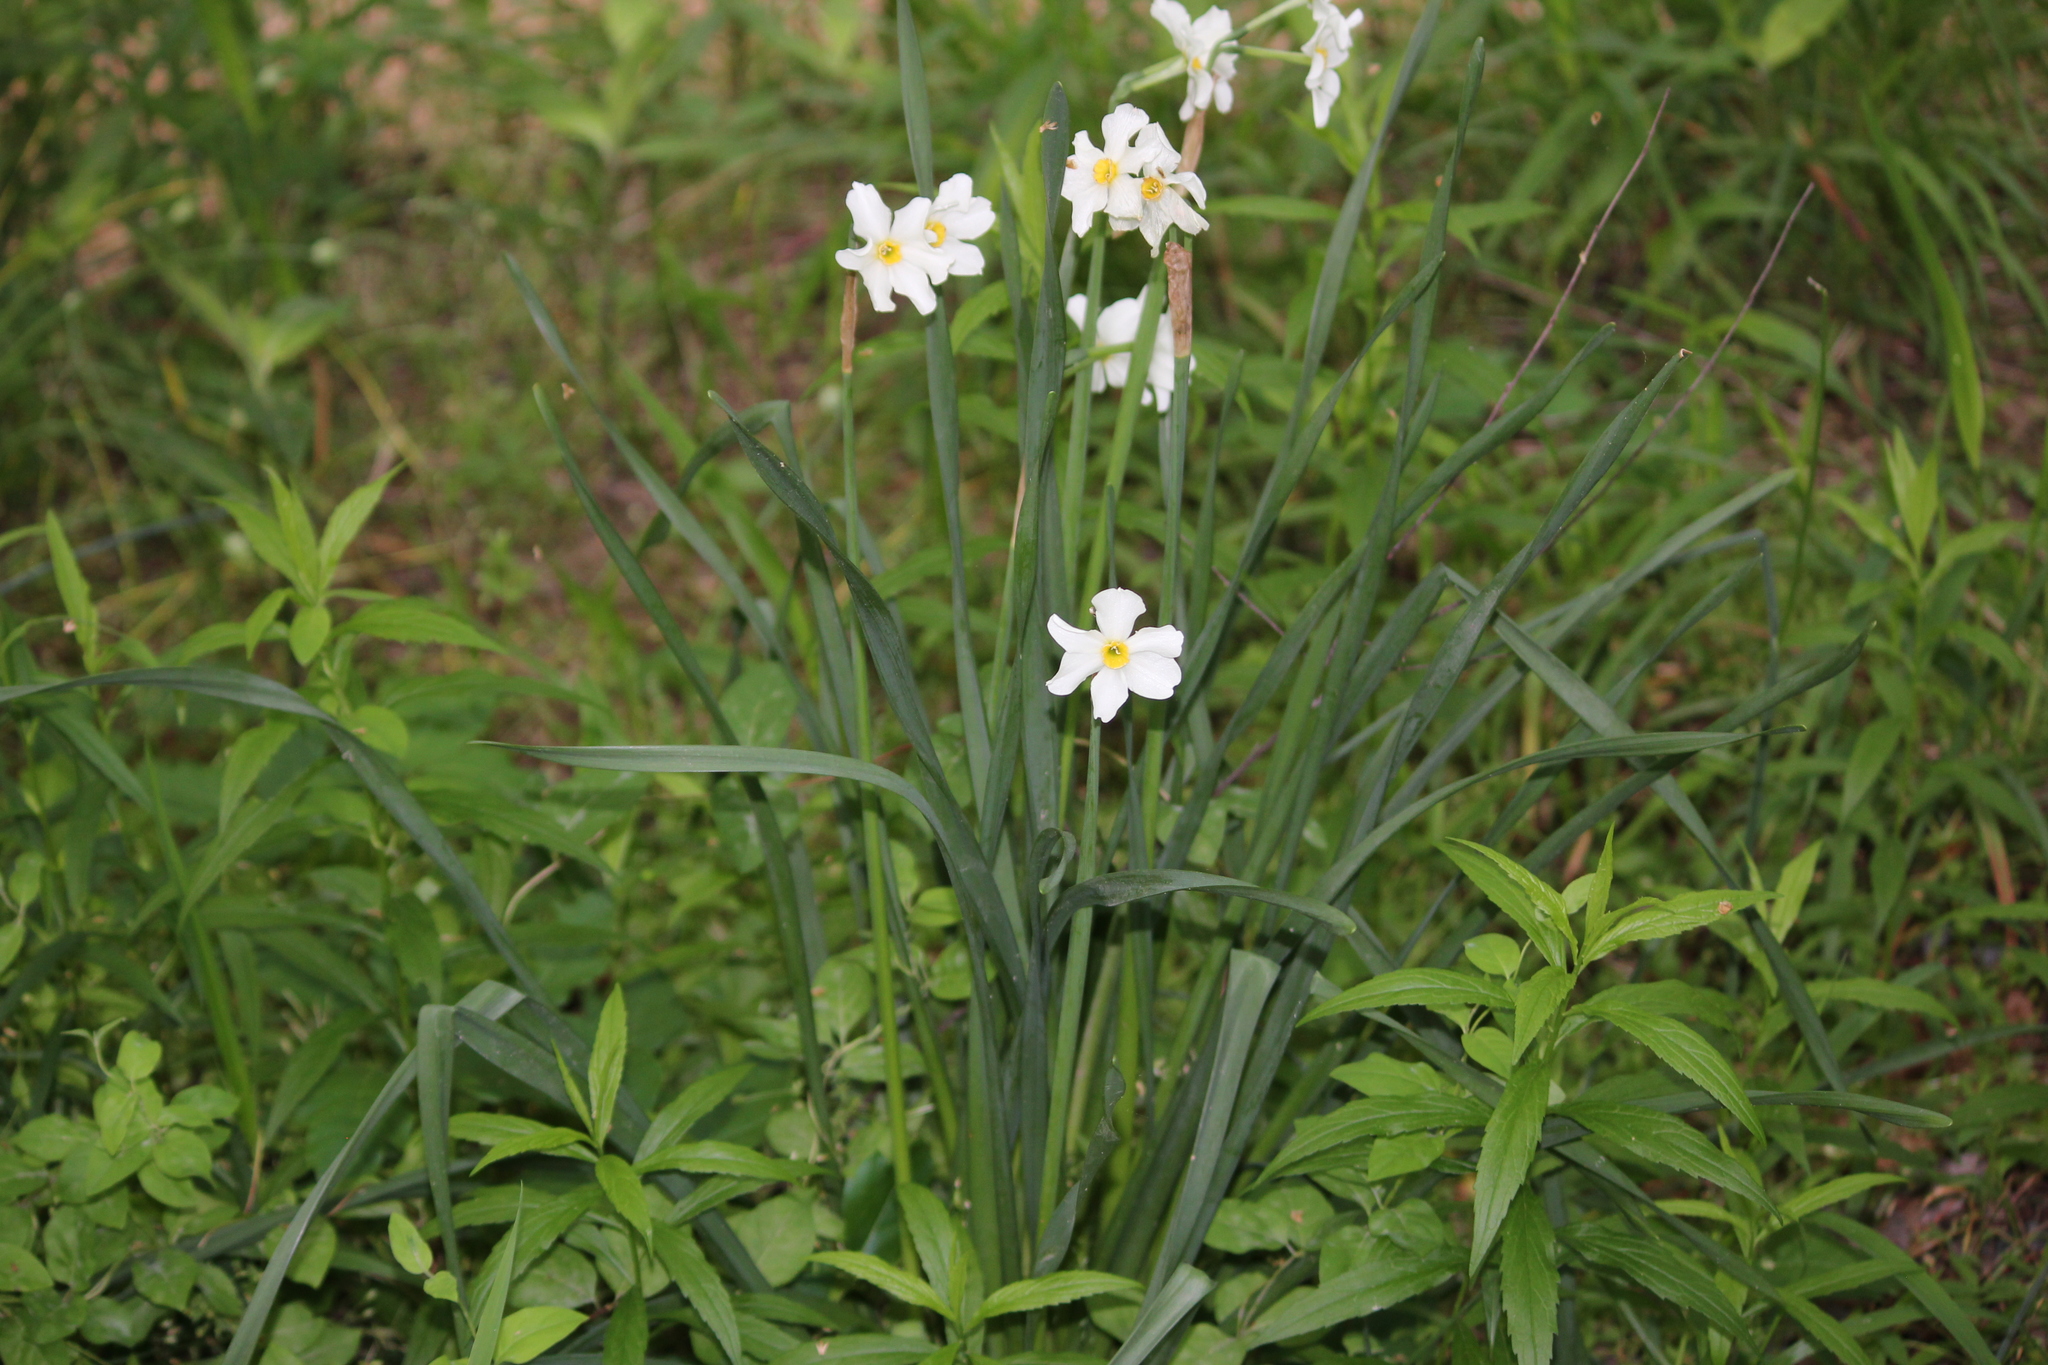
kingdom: Plantae
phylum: Tracheophyta
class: Liliopsida
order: Asparagales
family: Amaryllidaceae
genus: Narcissus
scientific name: Narcissus medioluteus
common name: Primrose-peerless
